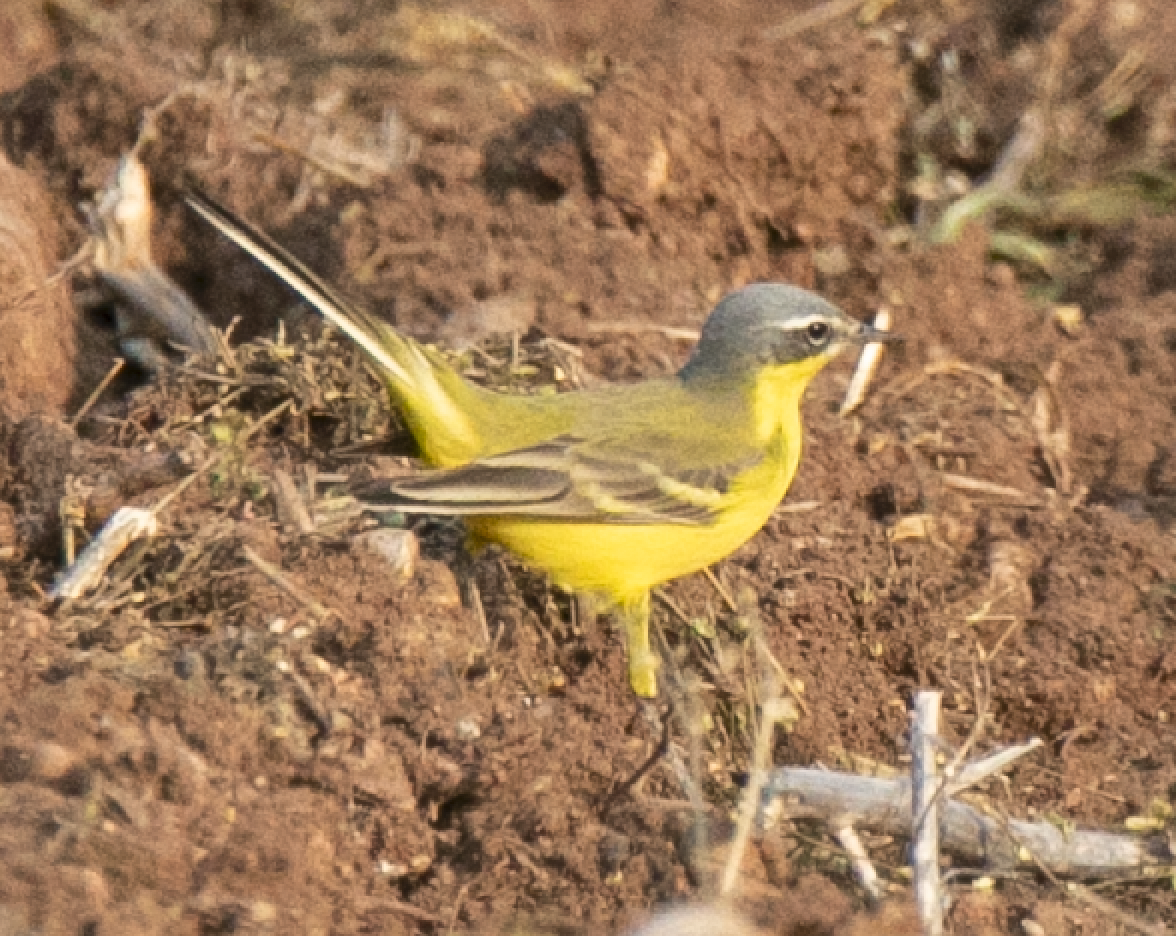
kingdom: Animalia
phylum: Chordata
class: Aves
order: Passeriformes
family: Motacillidae
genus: Motacilla
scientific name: Motacilla flava
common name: Western yellow wagtail
